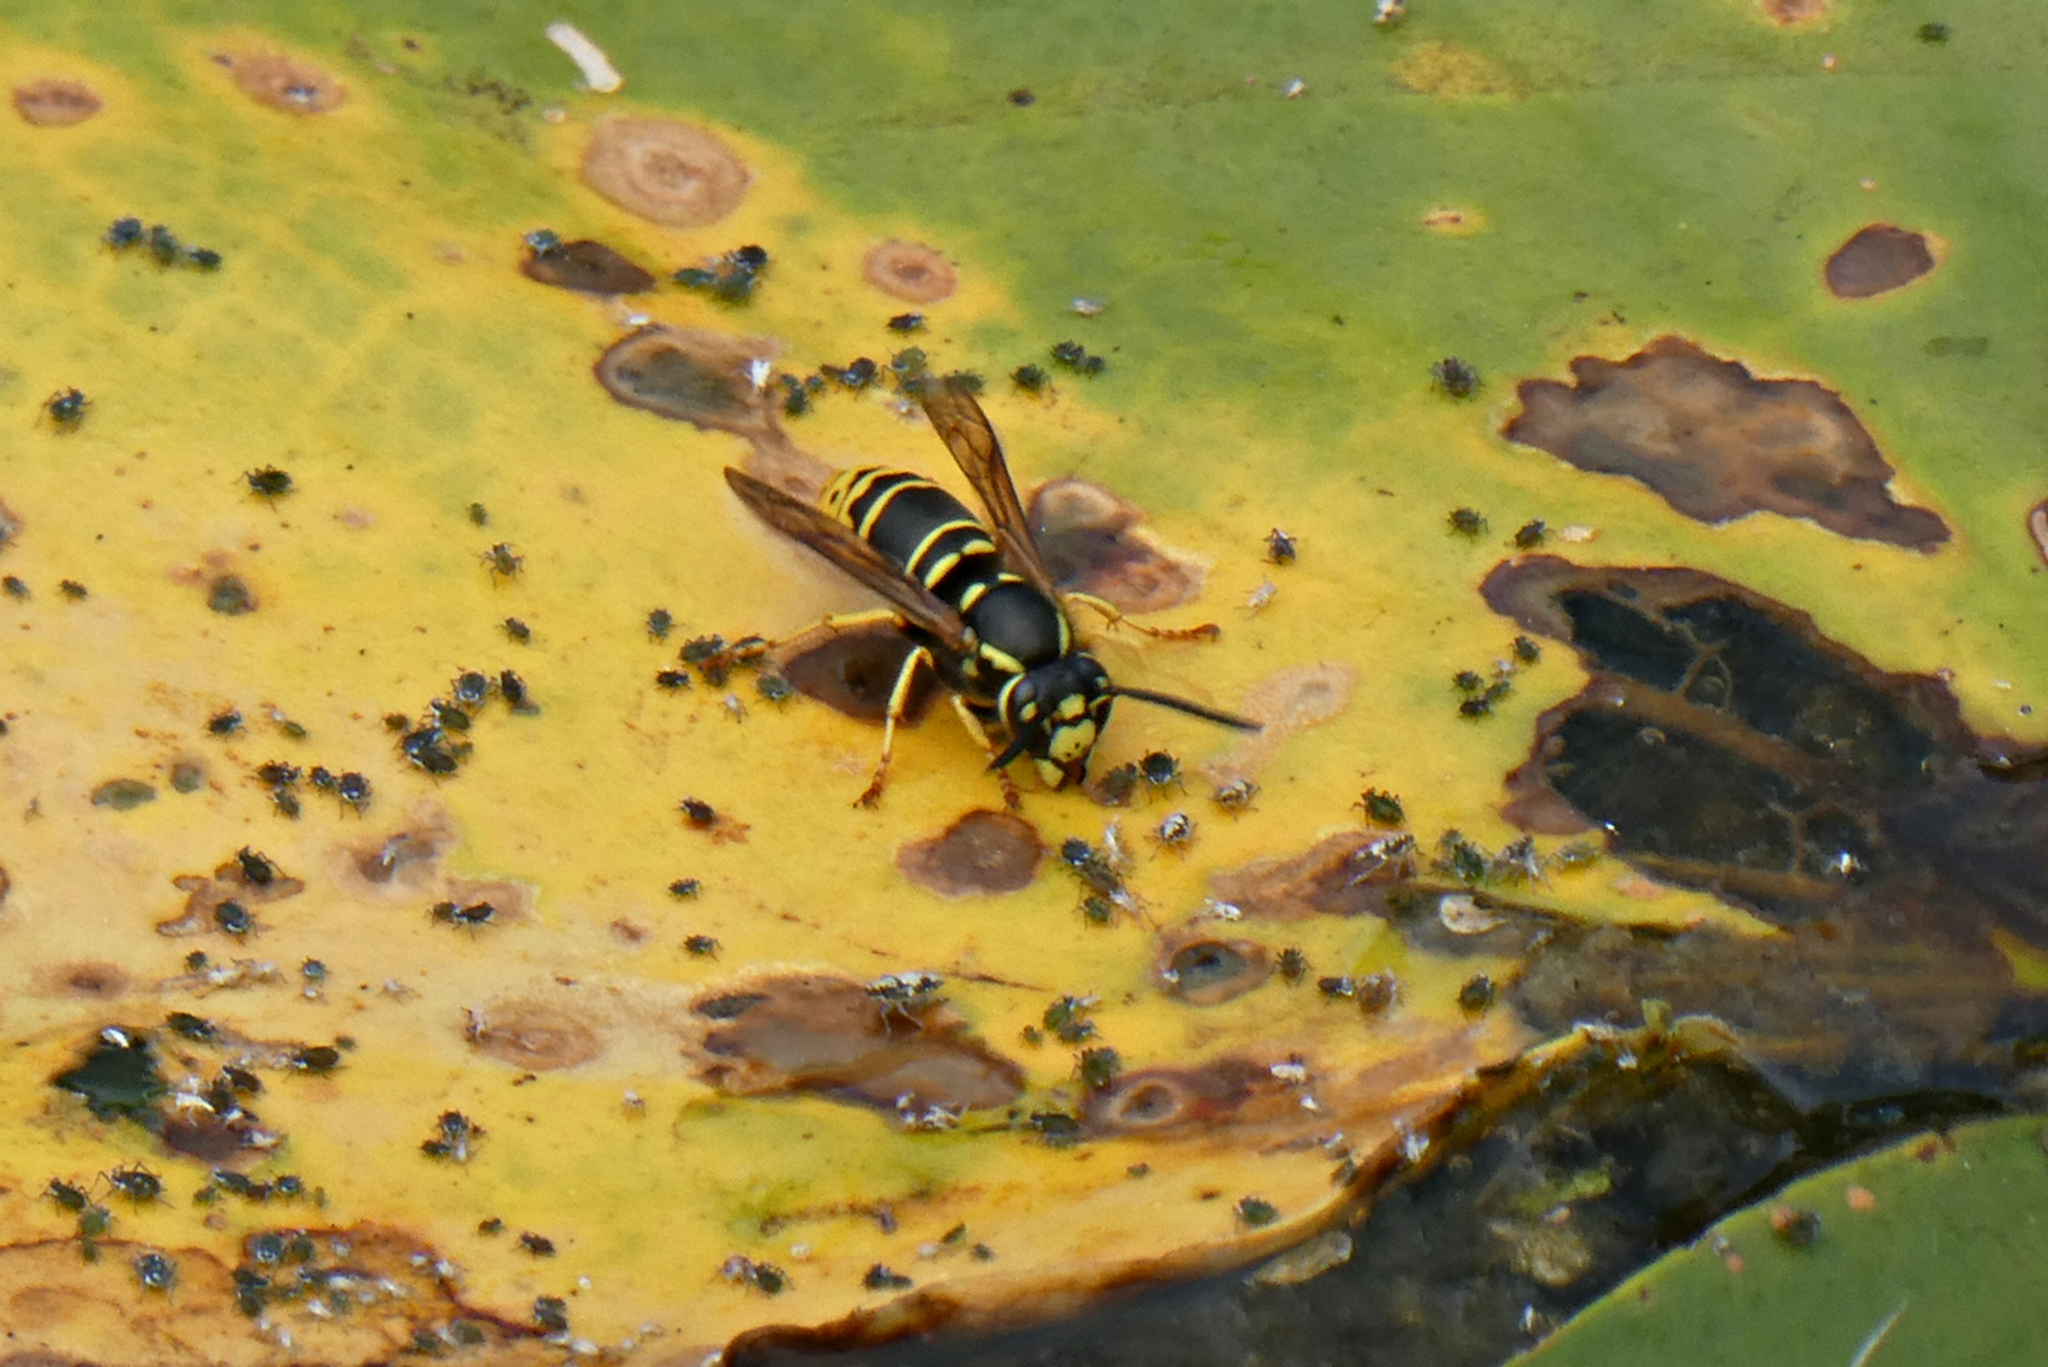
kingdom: Animalia
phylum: Arthropoda
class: Insecta
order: Hymenoptera
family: Vespidae
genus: Vespula
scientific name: Vespula vidua
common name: Widow yellowjacket
